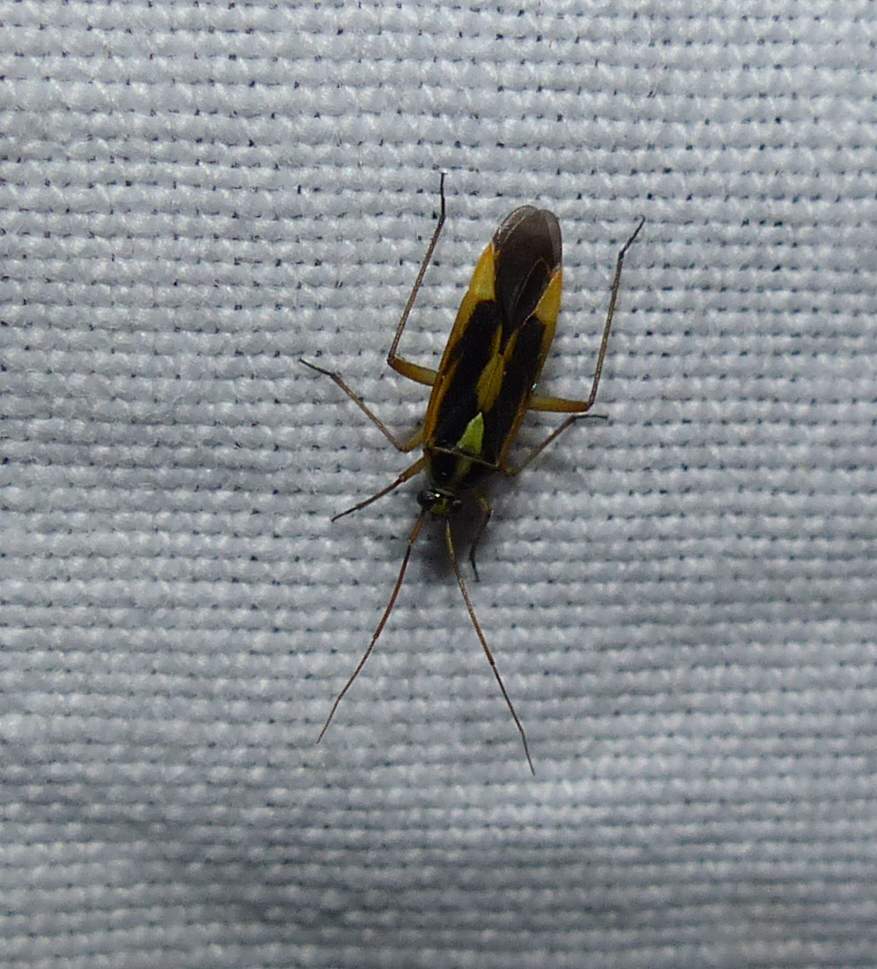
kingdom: Animalia
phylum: Arthropoda
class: Insecta
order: Hemiptera
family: Miridae
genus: Stenotus
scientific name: Stenotus binotatus
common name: Plant bug
